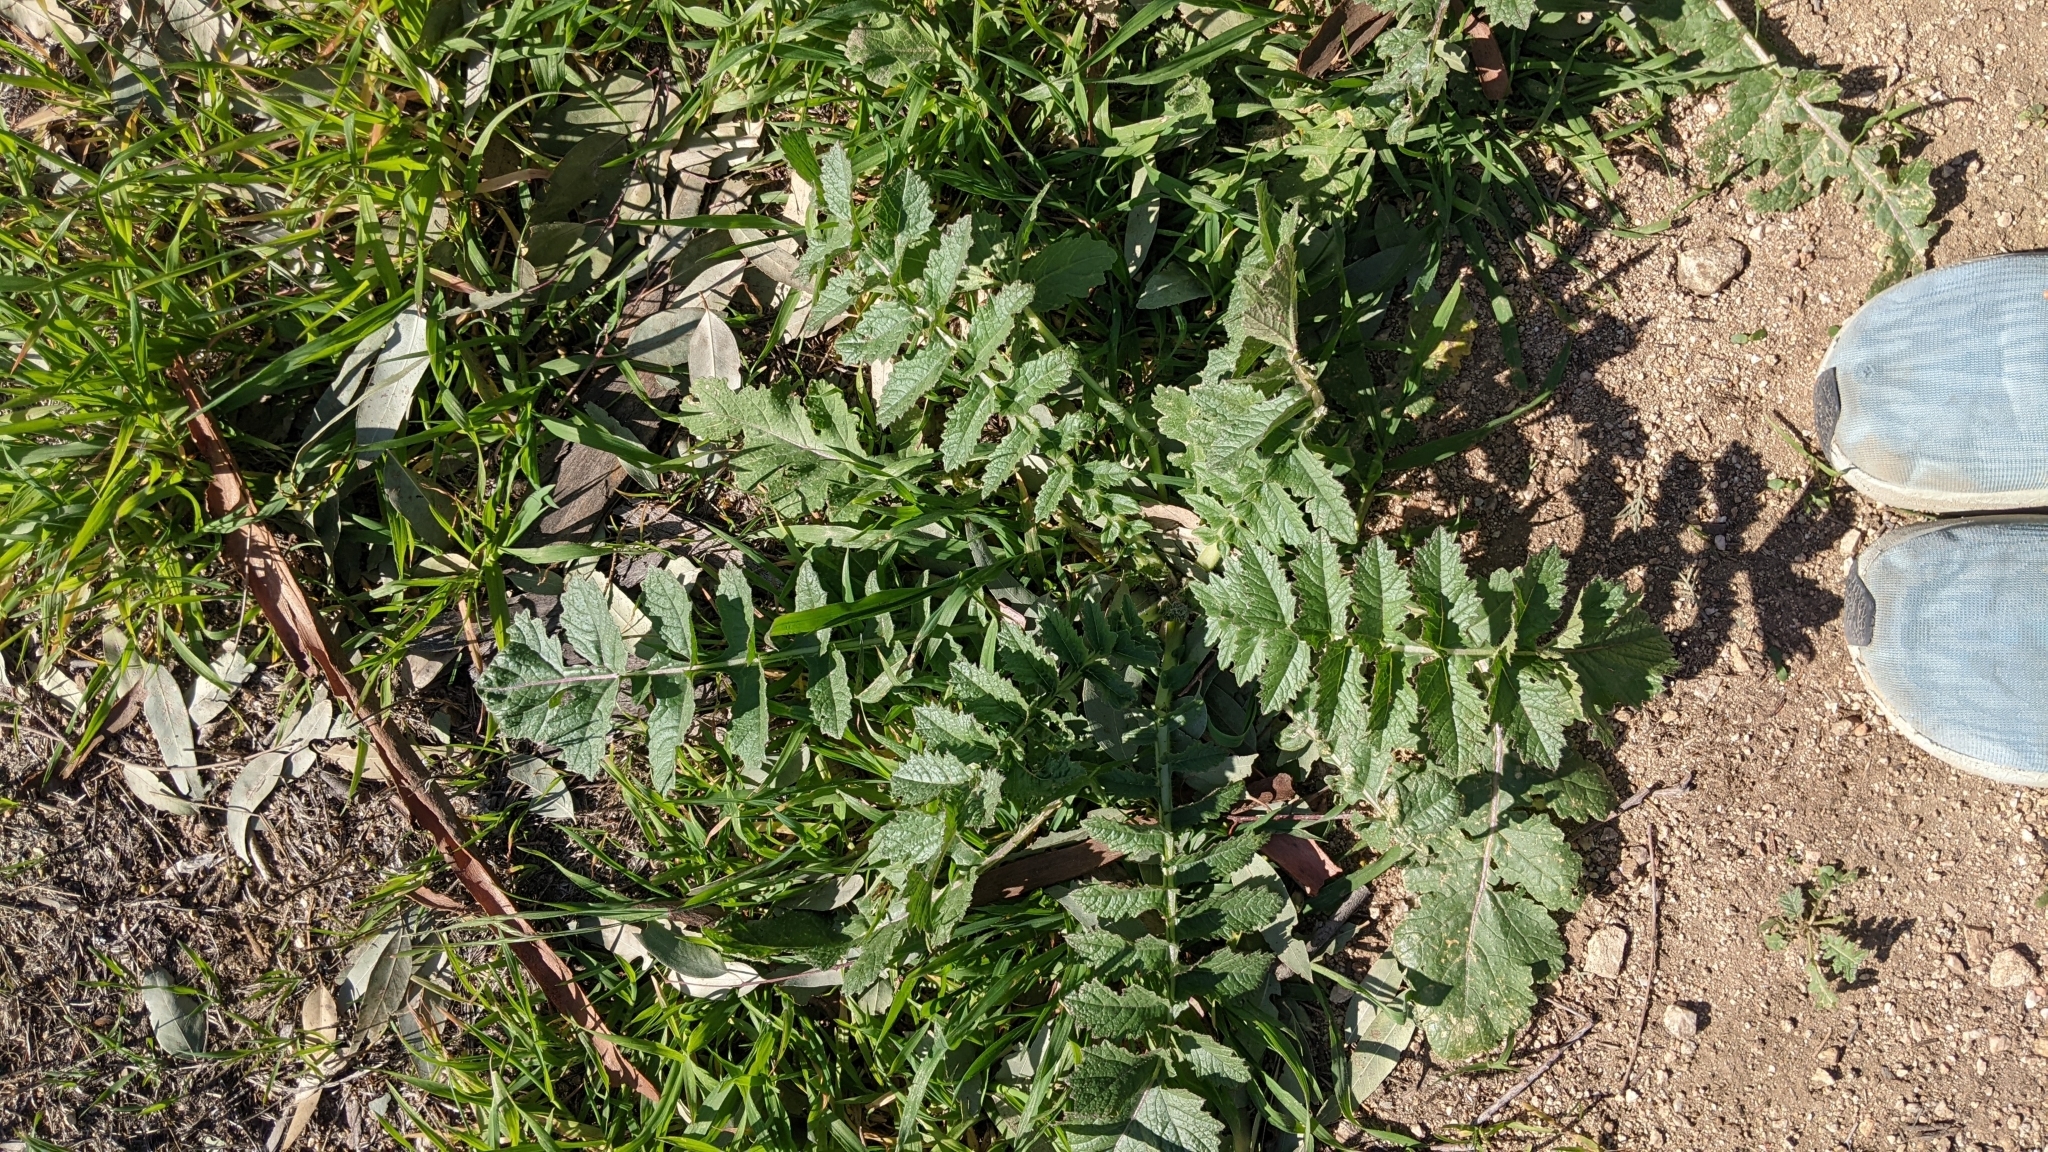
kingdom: Plantae
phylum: Tracheophyta
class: Magnoliopsida
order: Geraniales
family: Geraniaceae
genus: Erodium
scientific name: Erodium moschatum
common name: Musk stork's-bill
